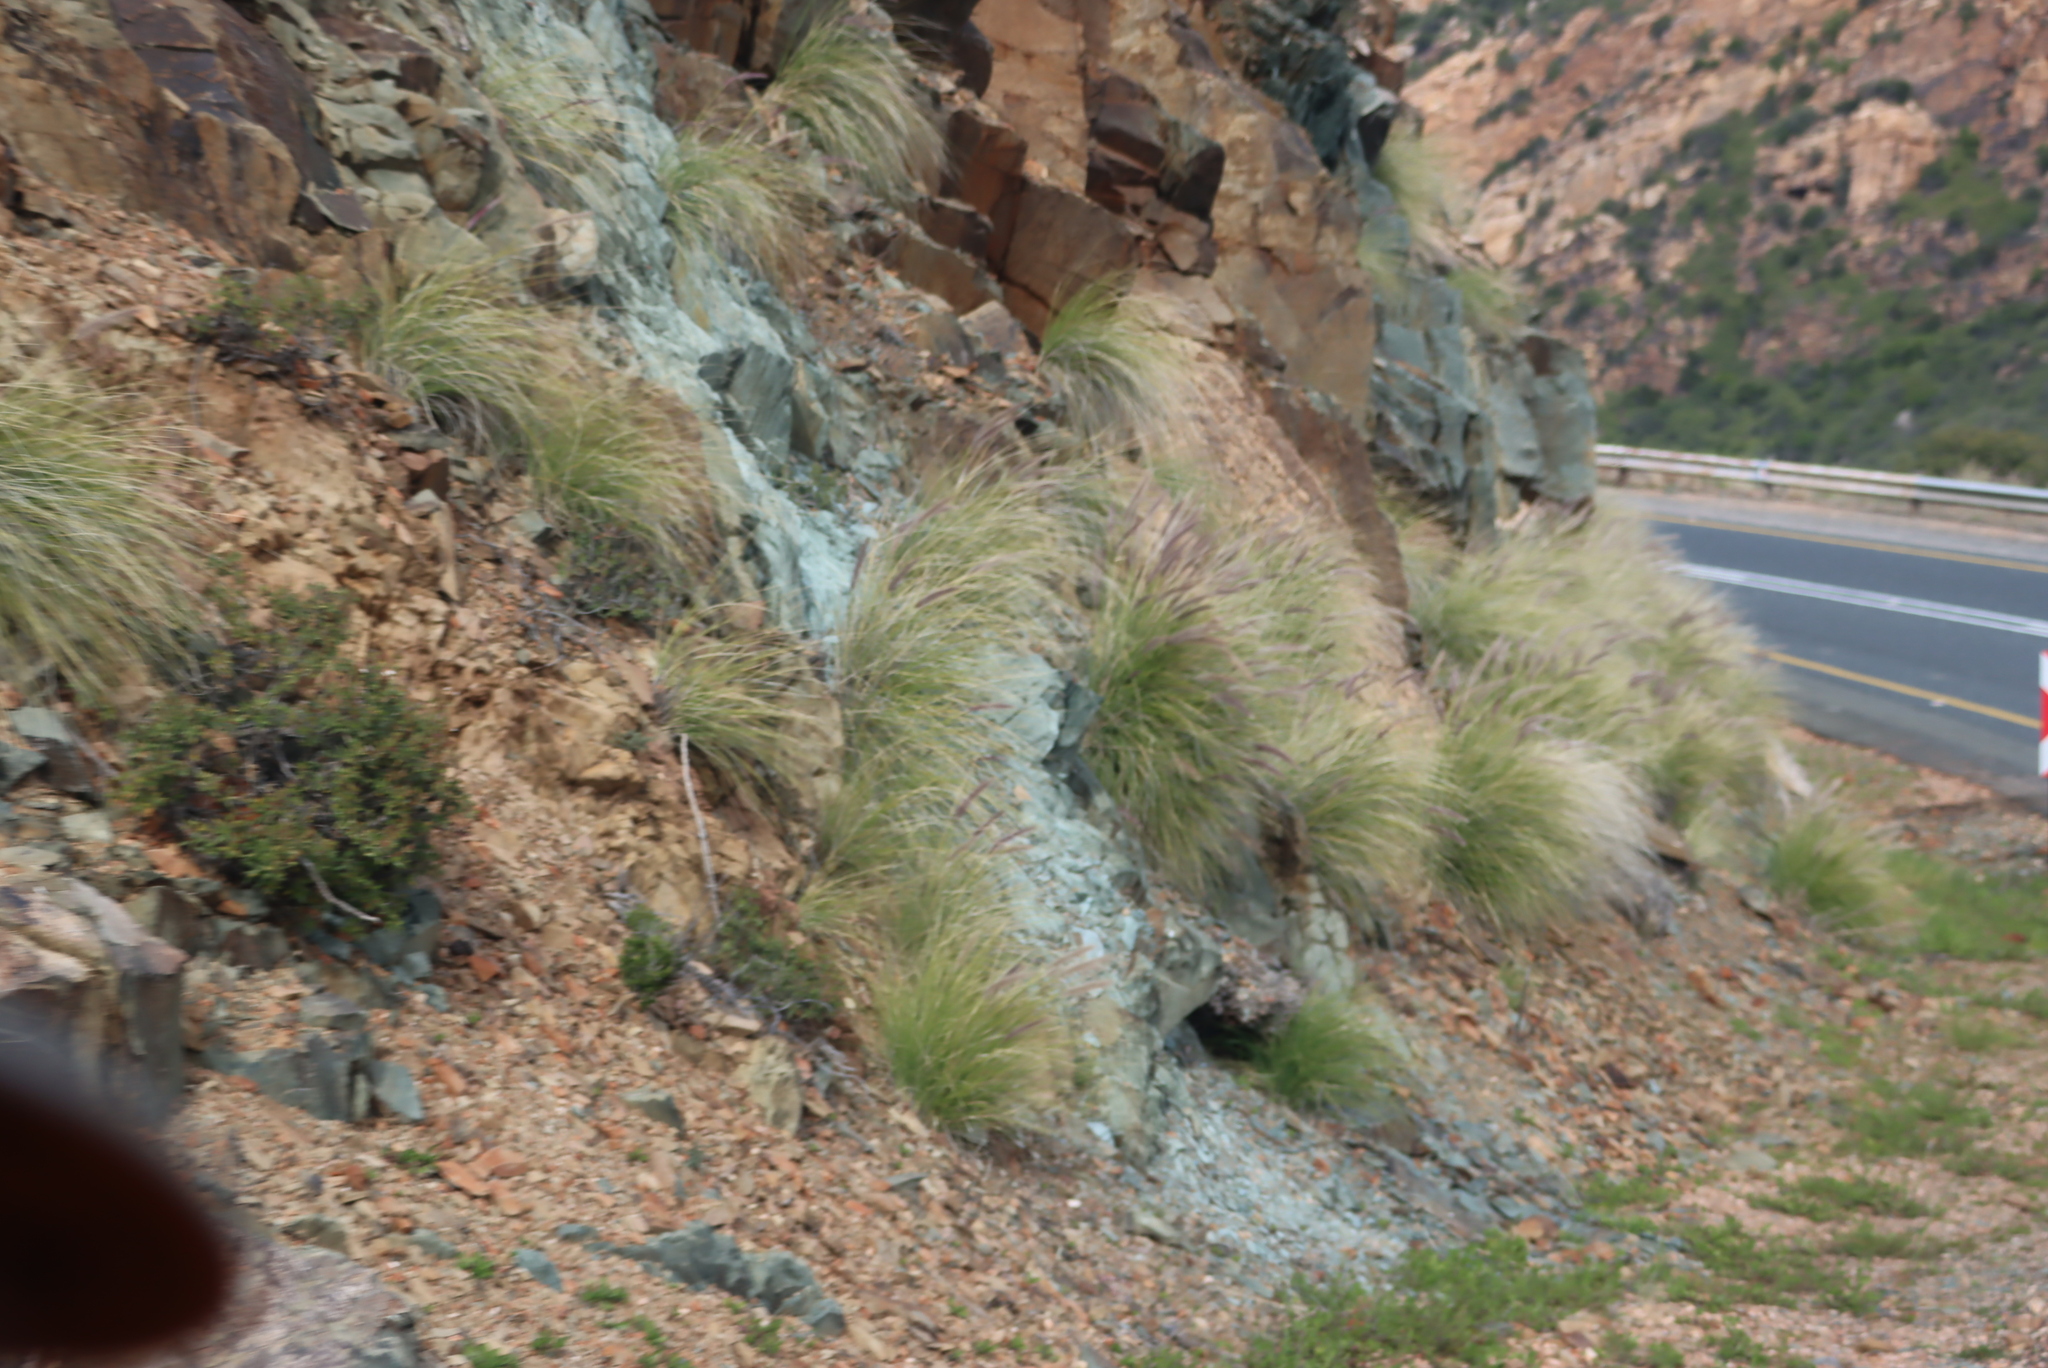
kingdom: Plantae
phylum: Tracheophyta
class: Liliopsida
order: Poales
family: Poaceae
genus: Cenchrus
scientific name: Cenchrus setaceus
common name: Crimson fountaingrass
